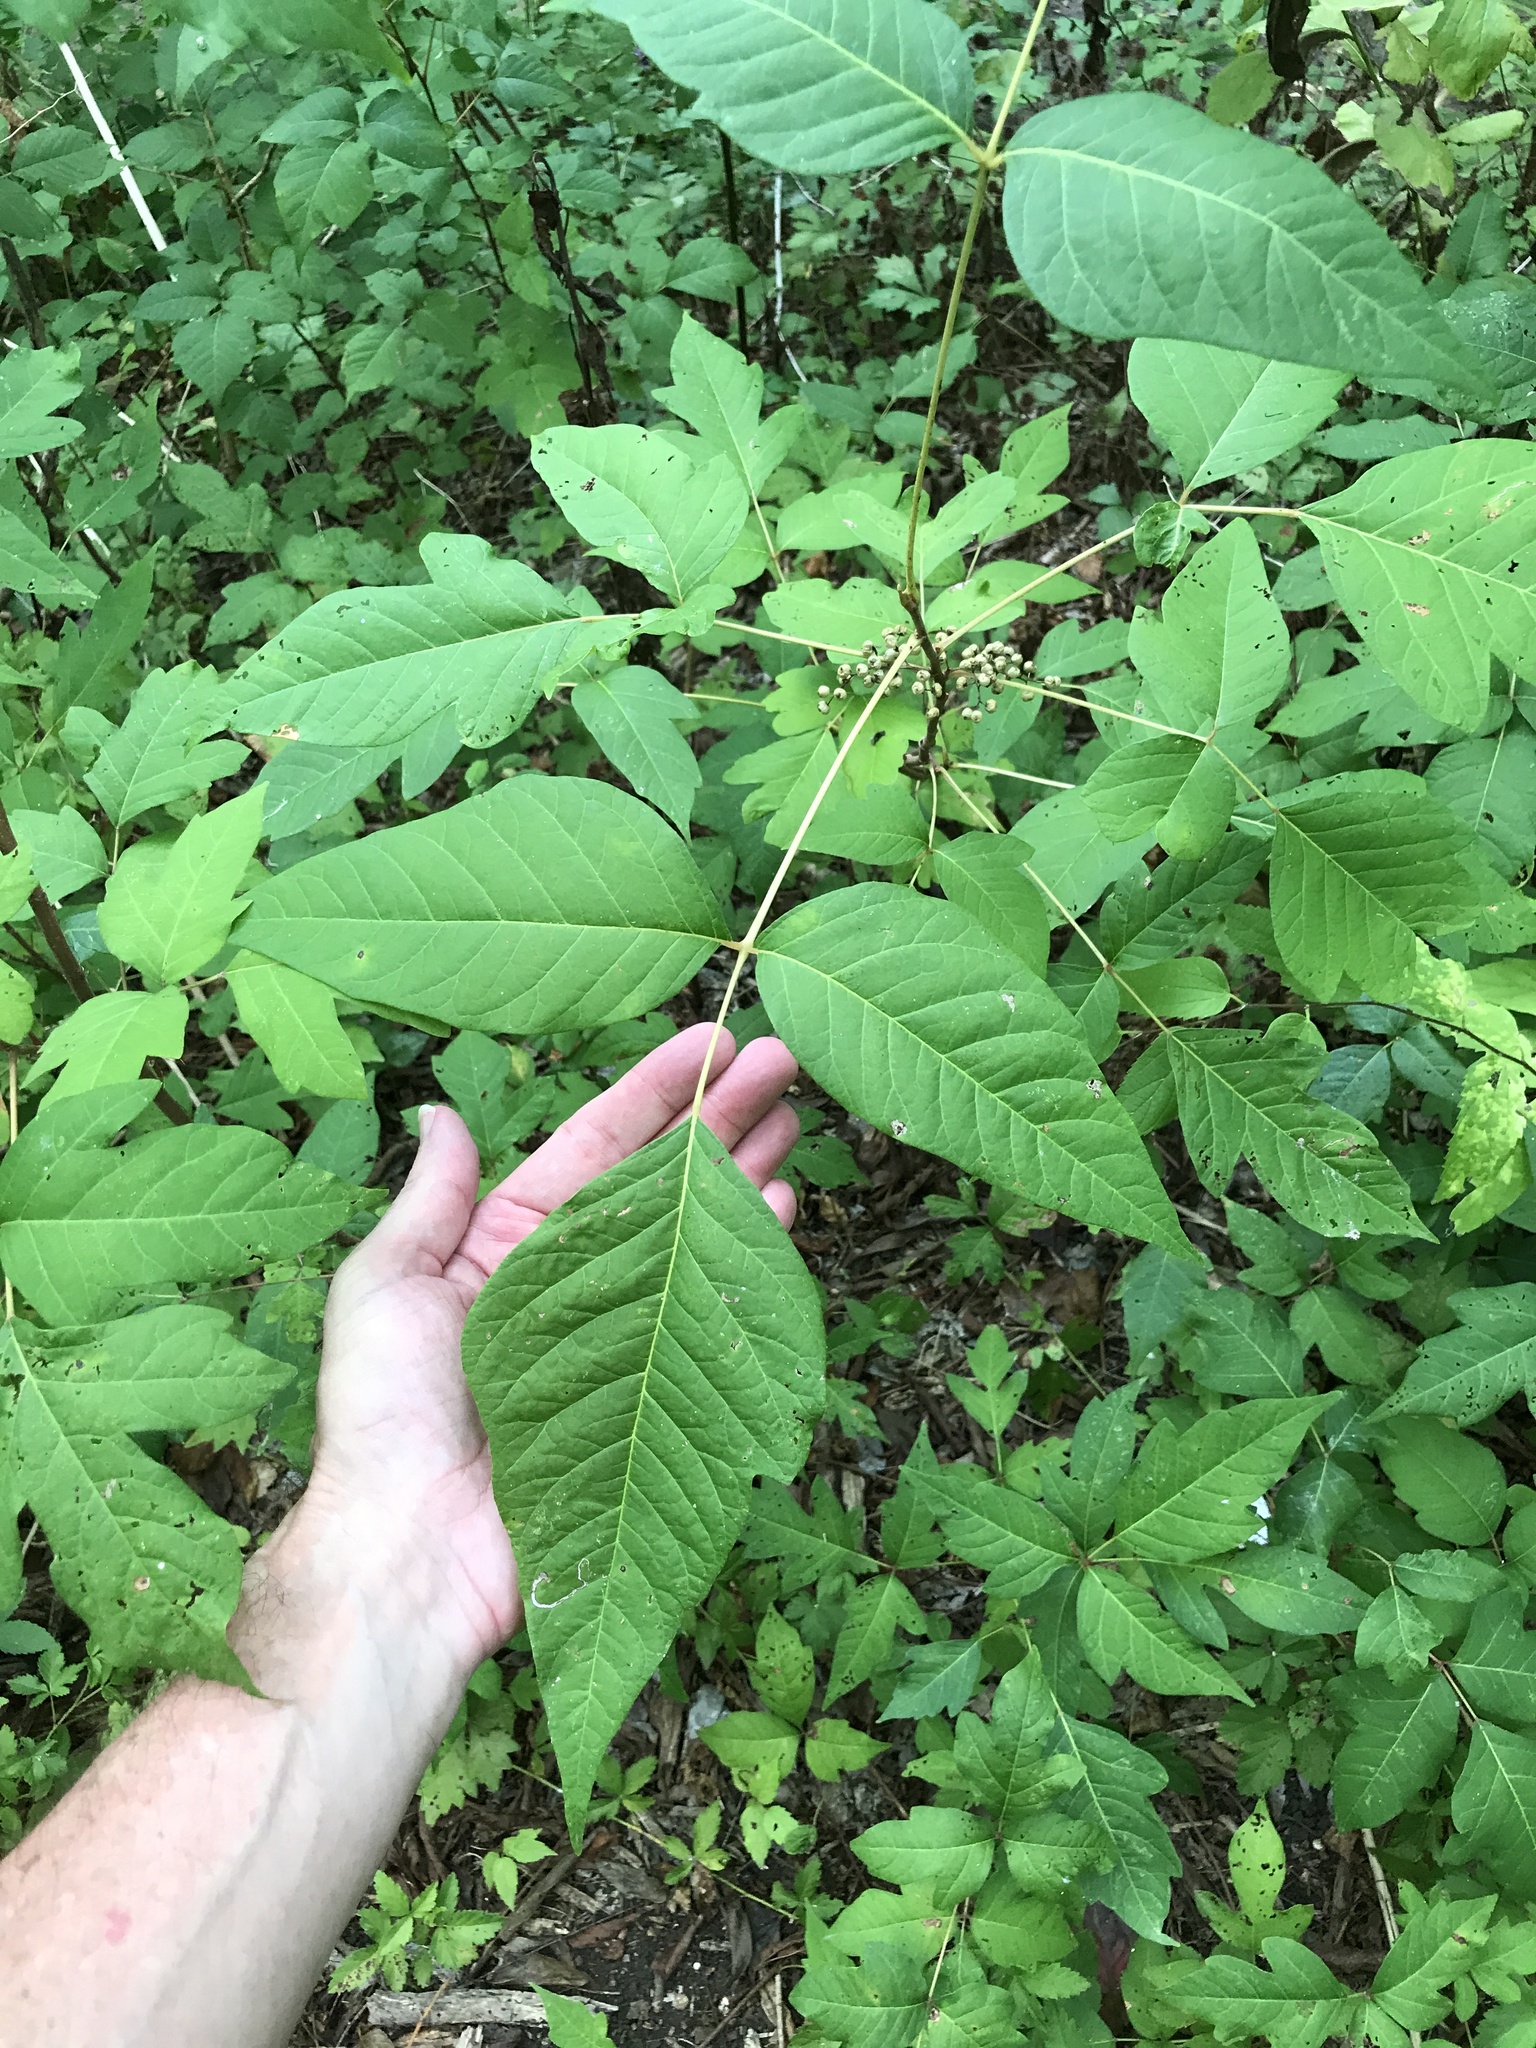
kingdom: Plantae
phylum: Tracheophyta
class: Magnoliopsida
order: Sapindales
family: Anacardiaceae
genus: Toxicodendron
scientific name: Toxicodendron radicans
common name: Poison ivy
